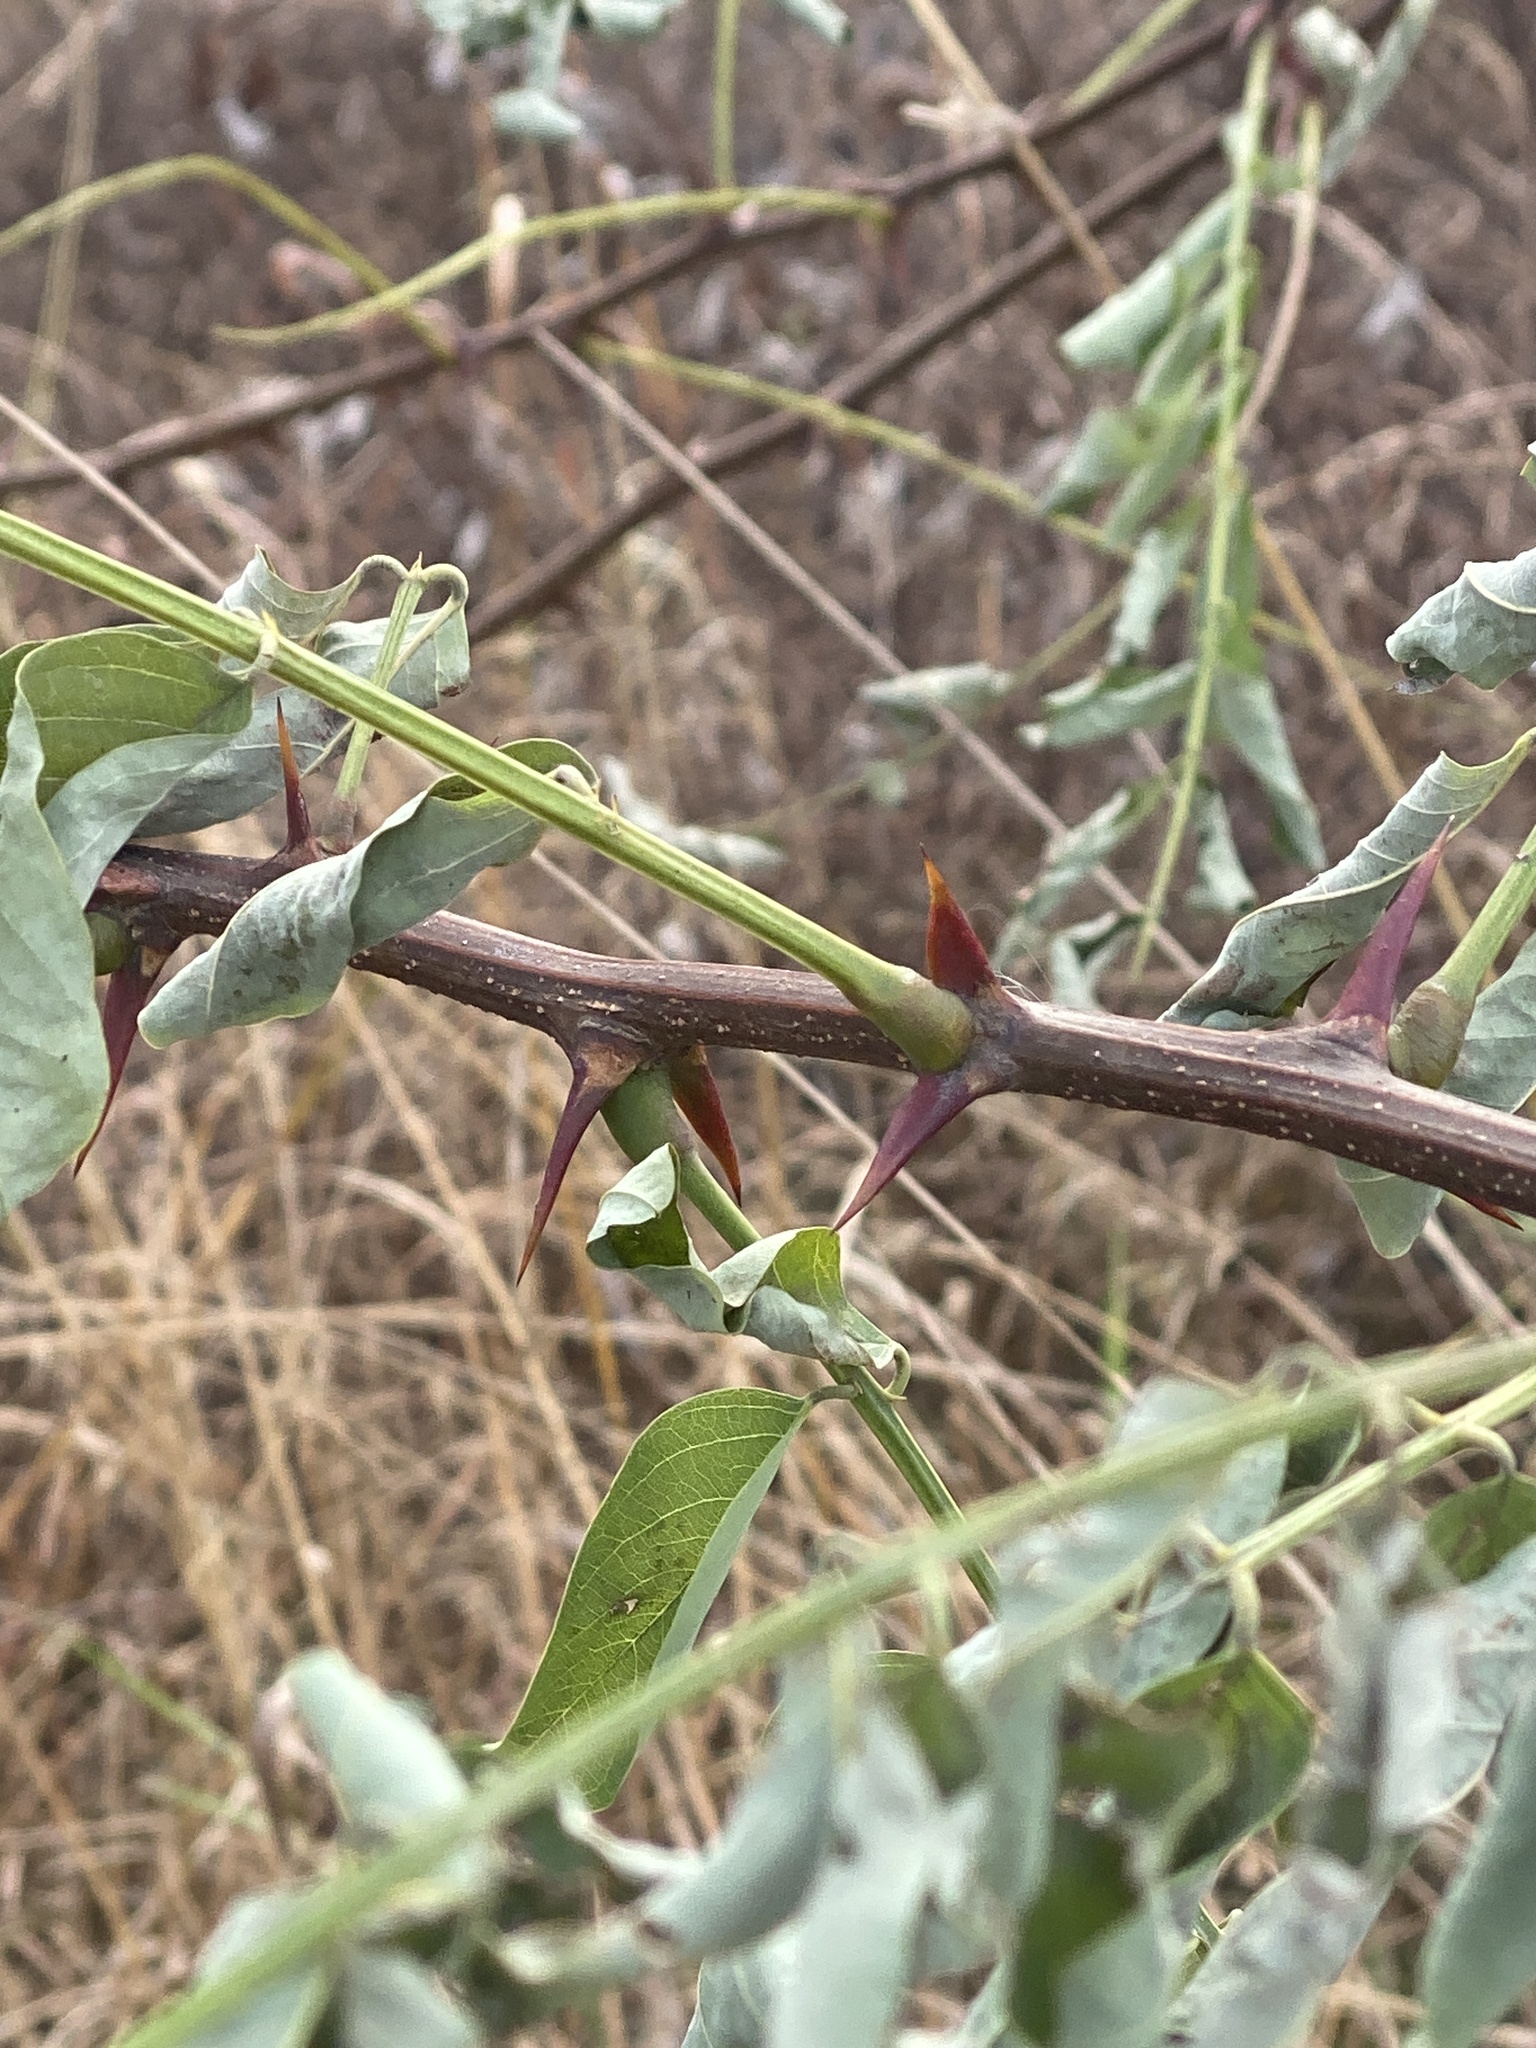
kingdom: Plantae
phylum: Tracheophyta
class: Magnoliopsida
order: Fabales
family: Fabaceae
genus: Robinia
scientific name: Robinia pseudoacacia
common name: Black locust
